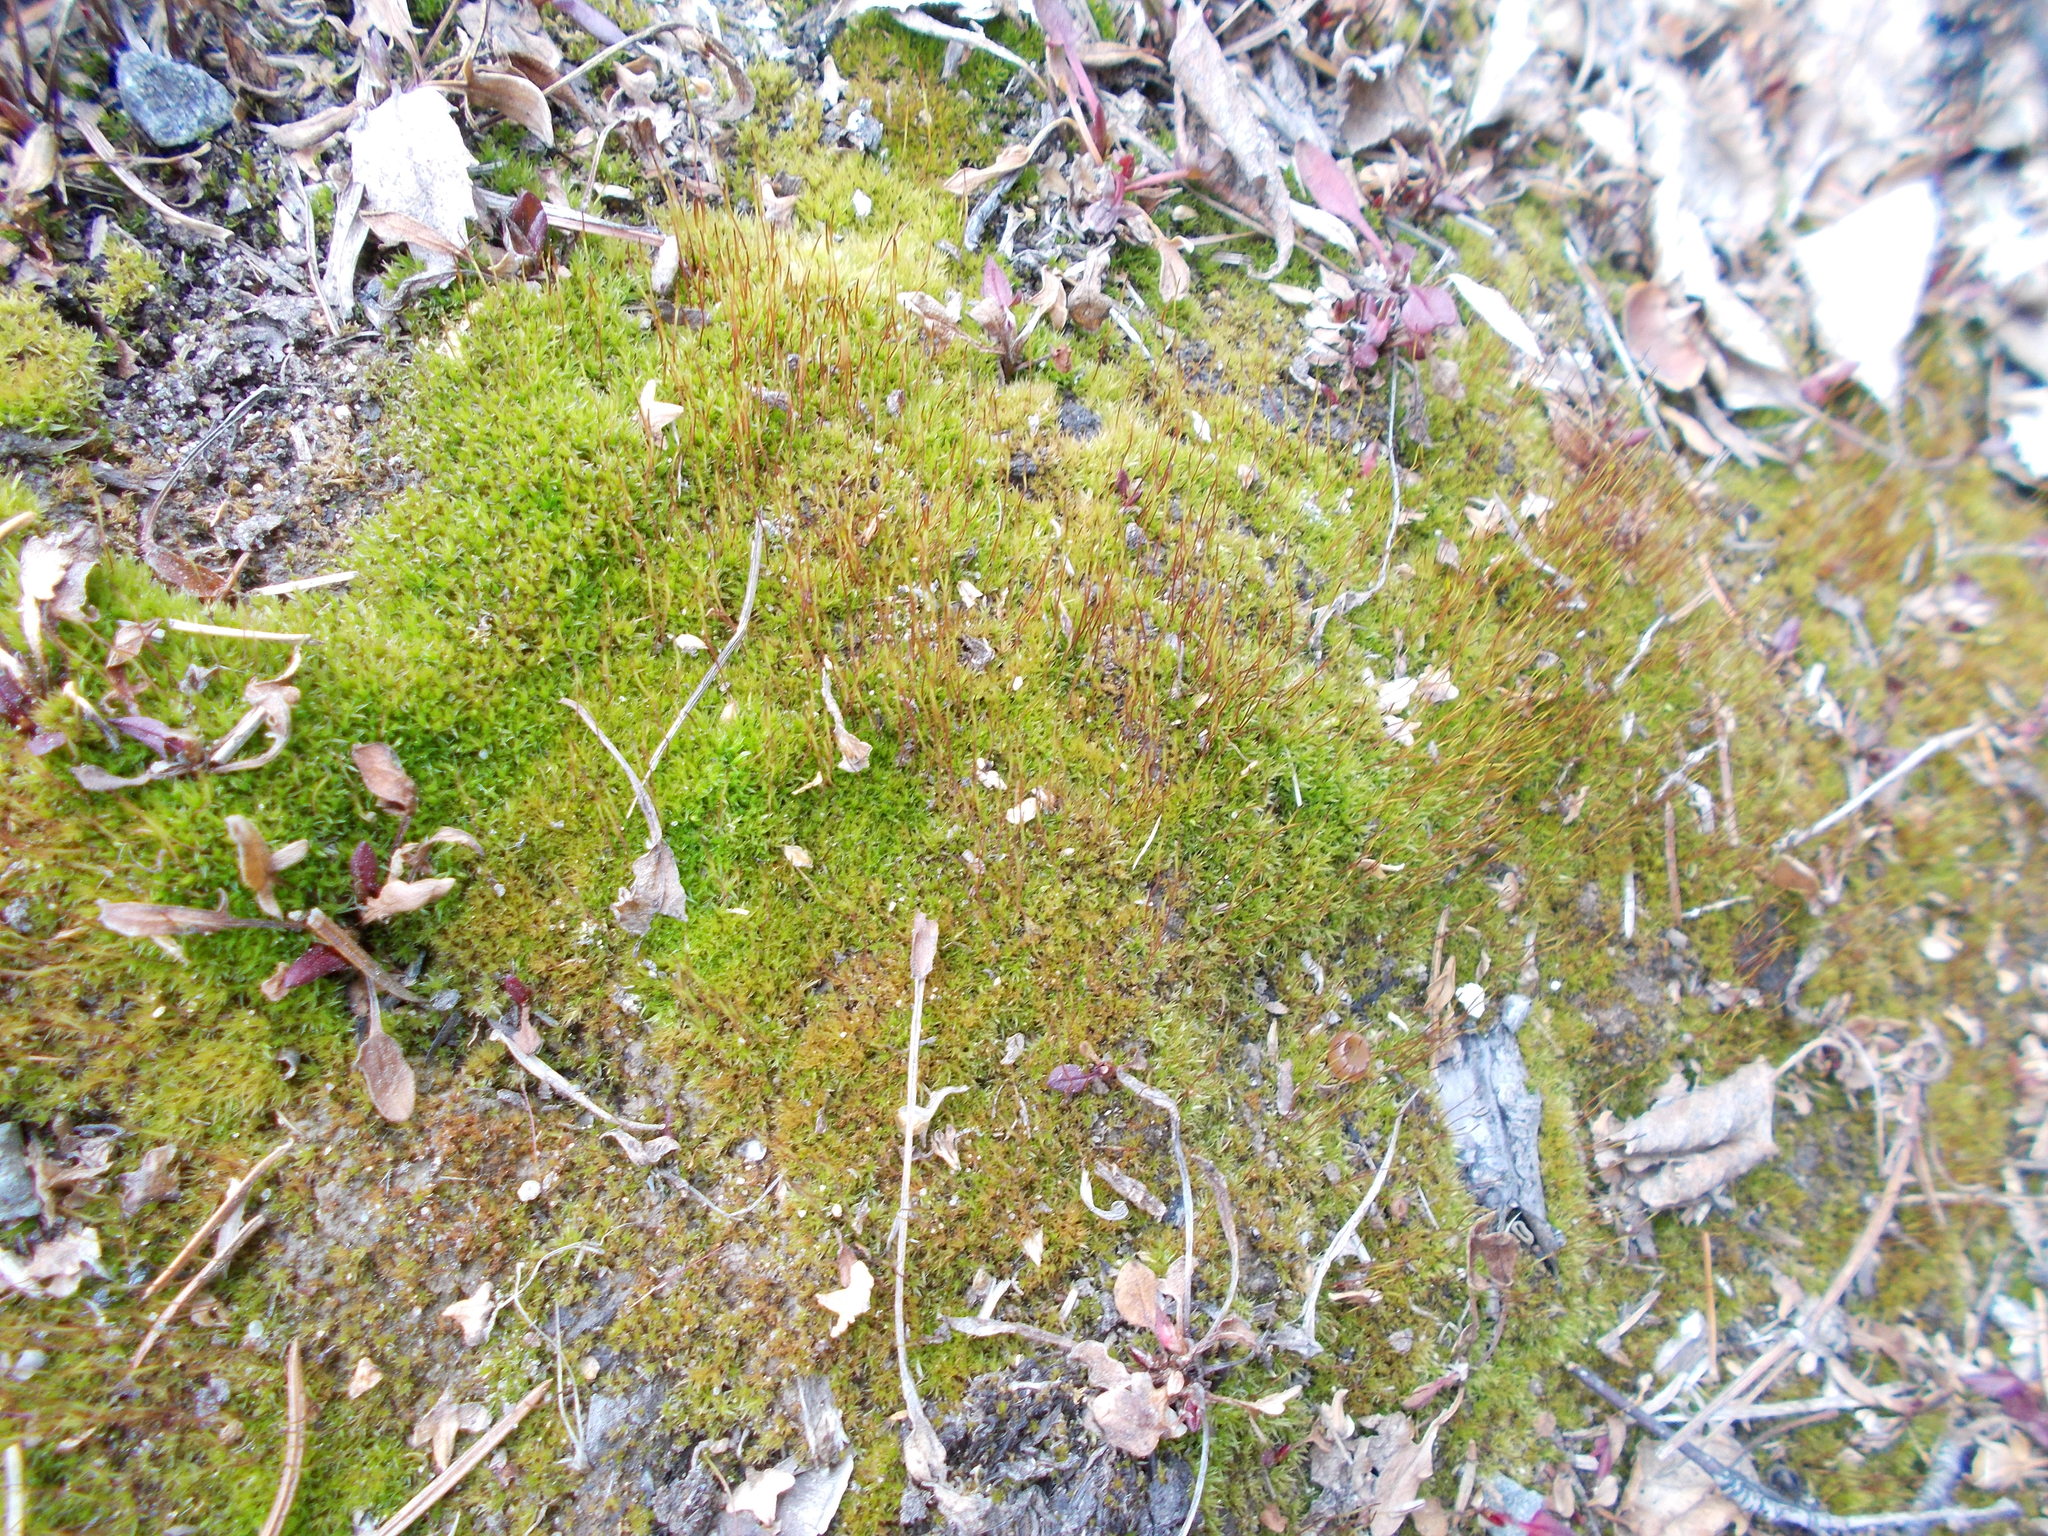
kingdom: Plantae
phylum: Bryophyta
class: Bryopsida
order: Dicranales
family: Ditrichaceae
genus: Ceratodon
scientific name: Ceratodon purpureus
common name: Redshank
